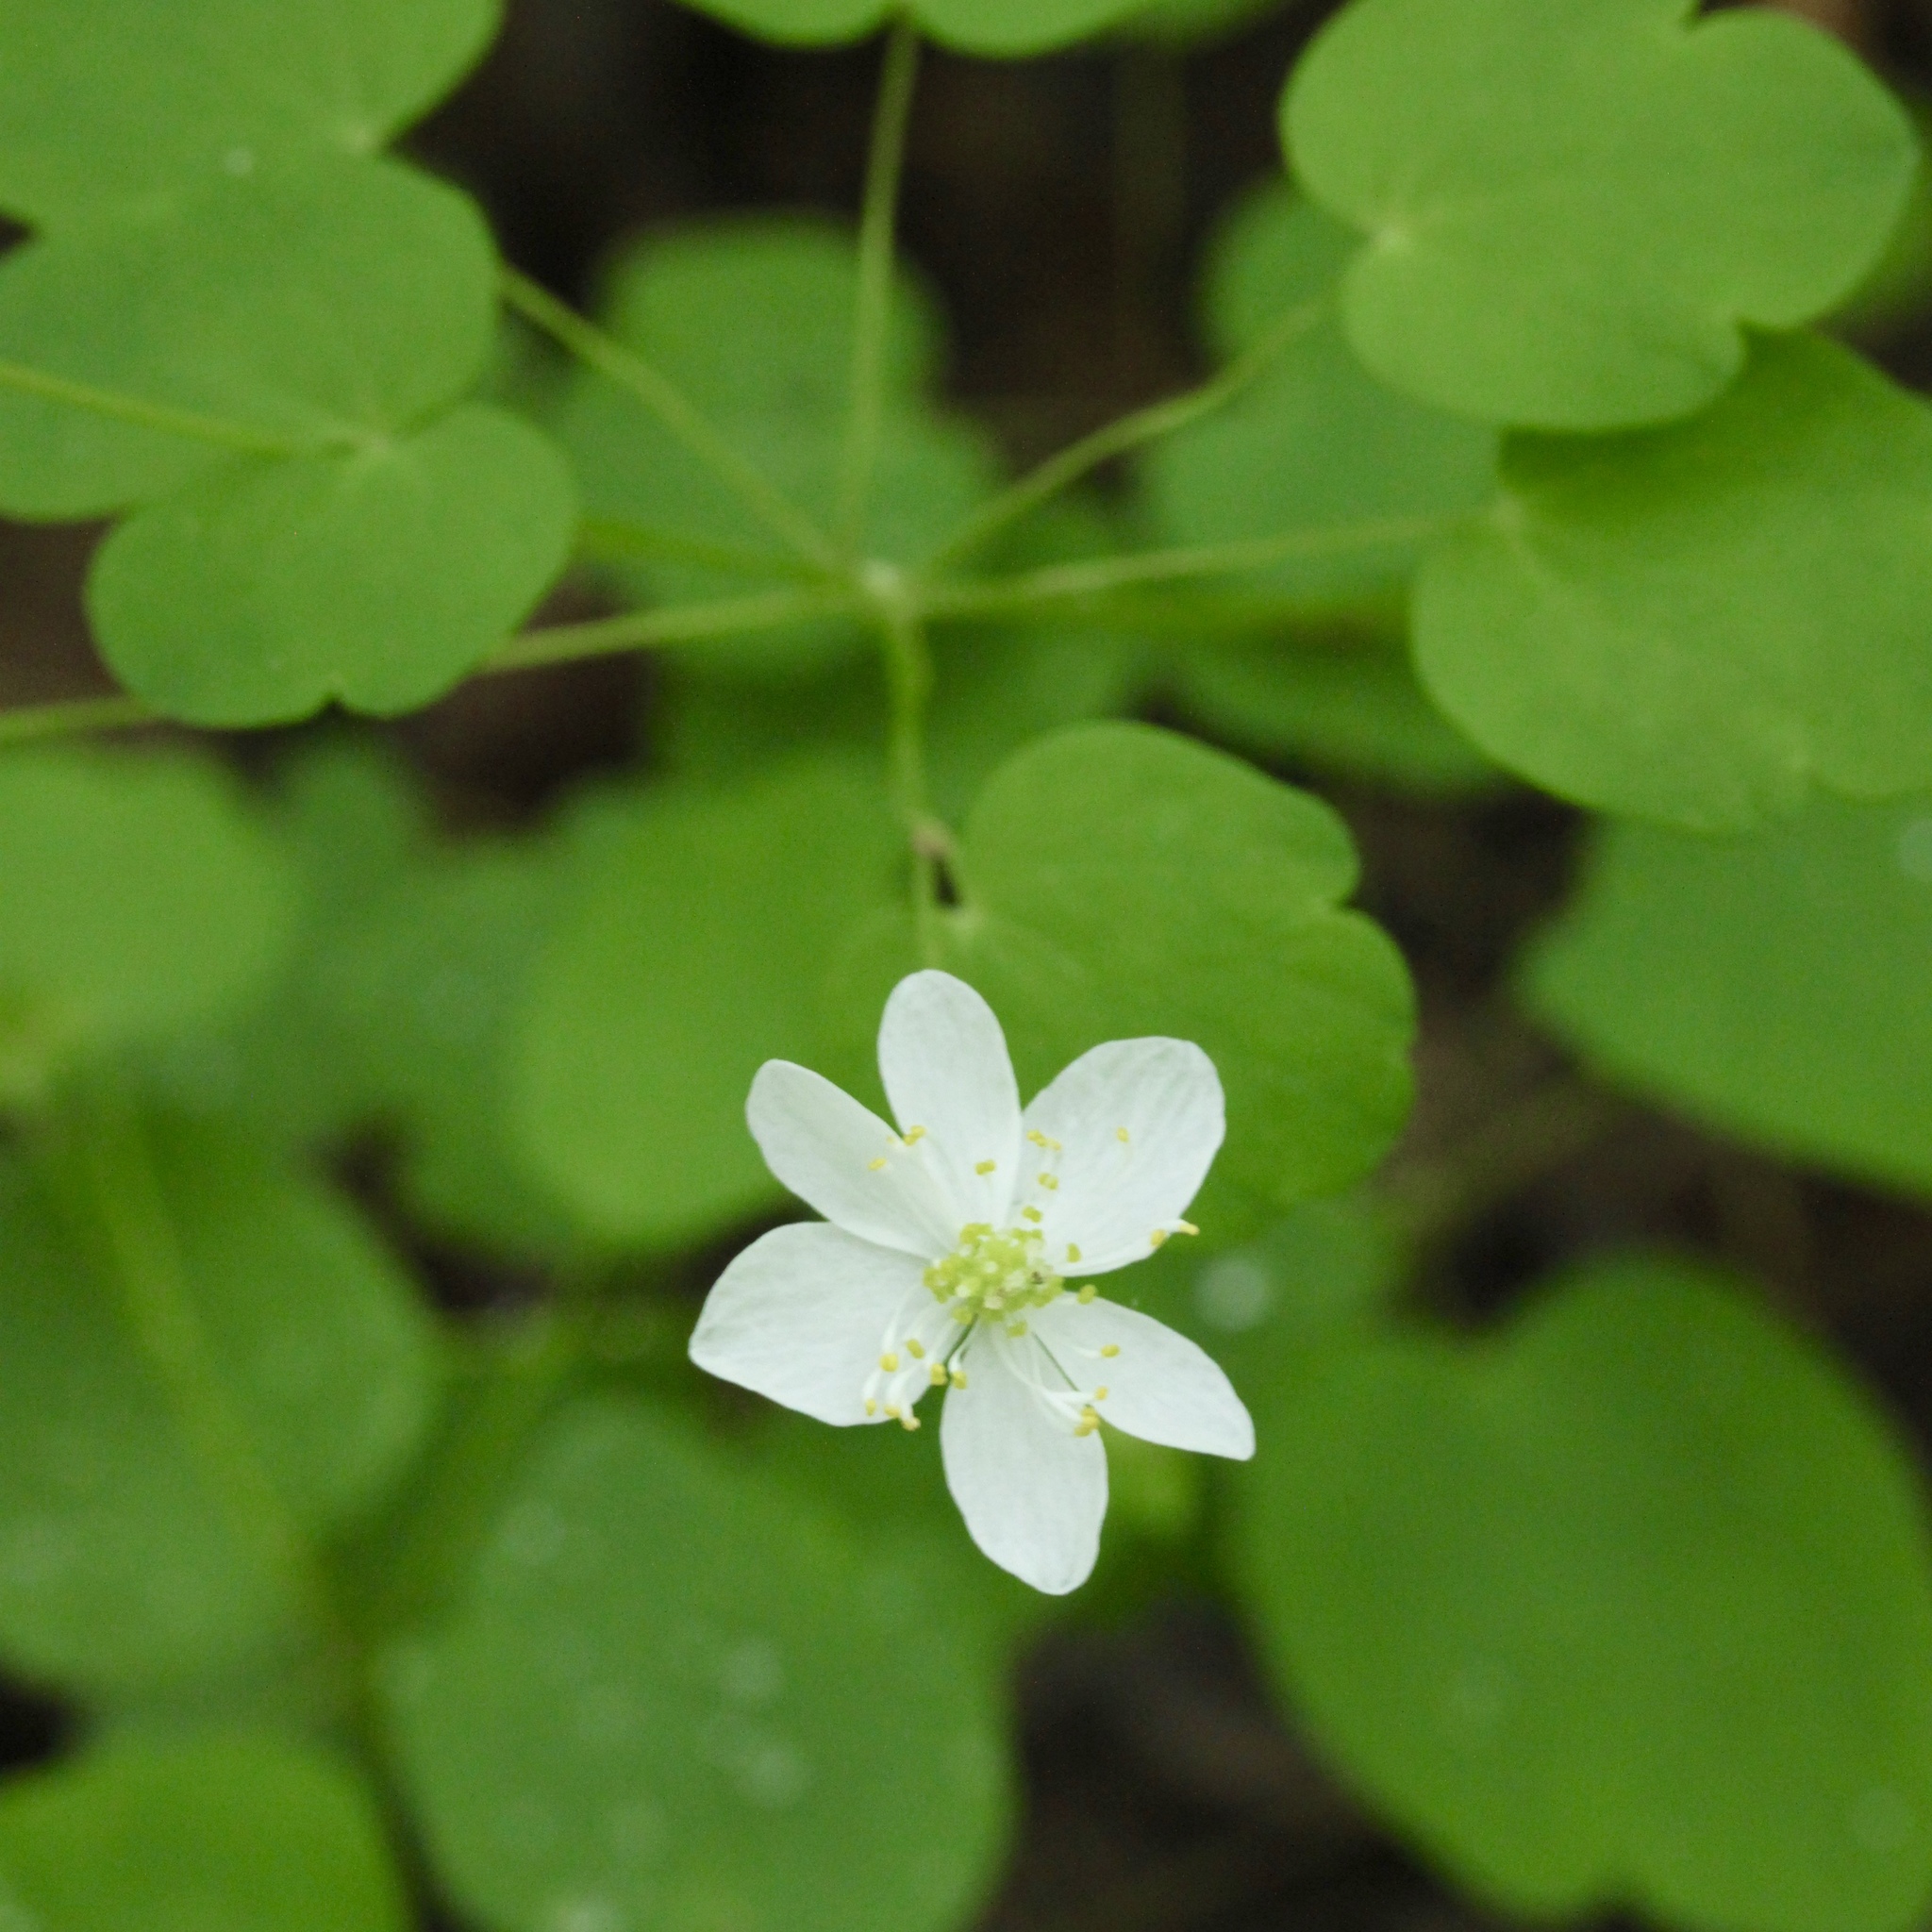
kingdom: Plantae
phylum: Tracheophyta
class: Magnoliopsida
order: Ranunculales
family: Ranunculaceae
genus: Thalictrum
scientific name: Thalictrum thalictroides
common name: Rue-anemone
